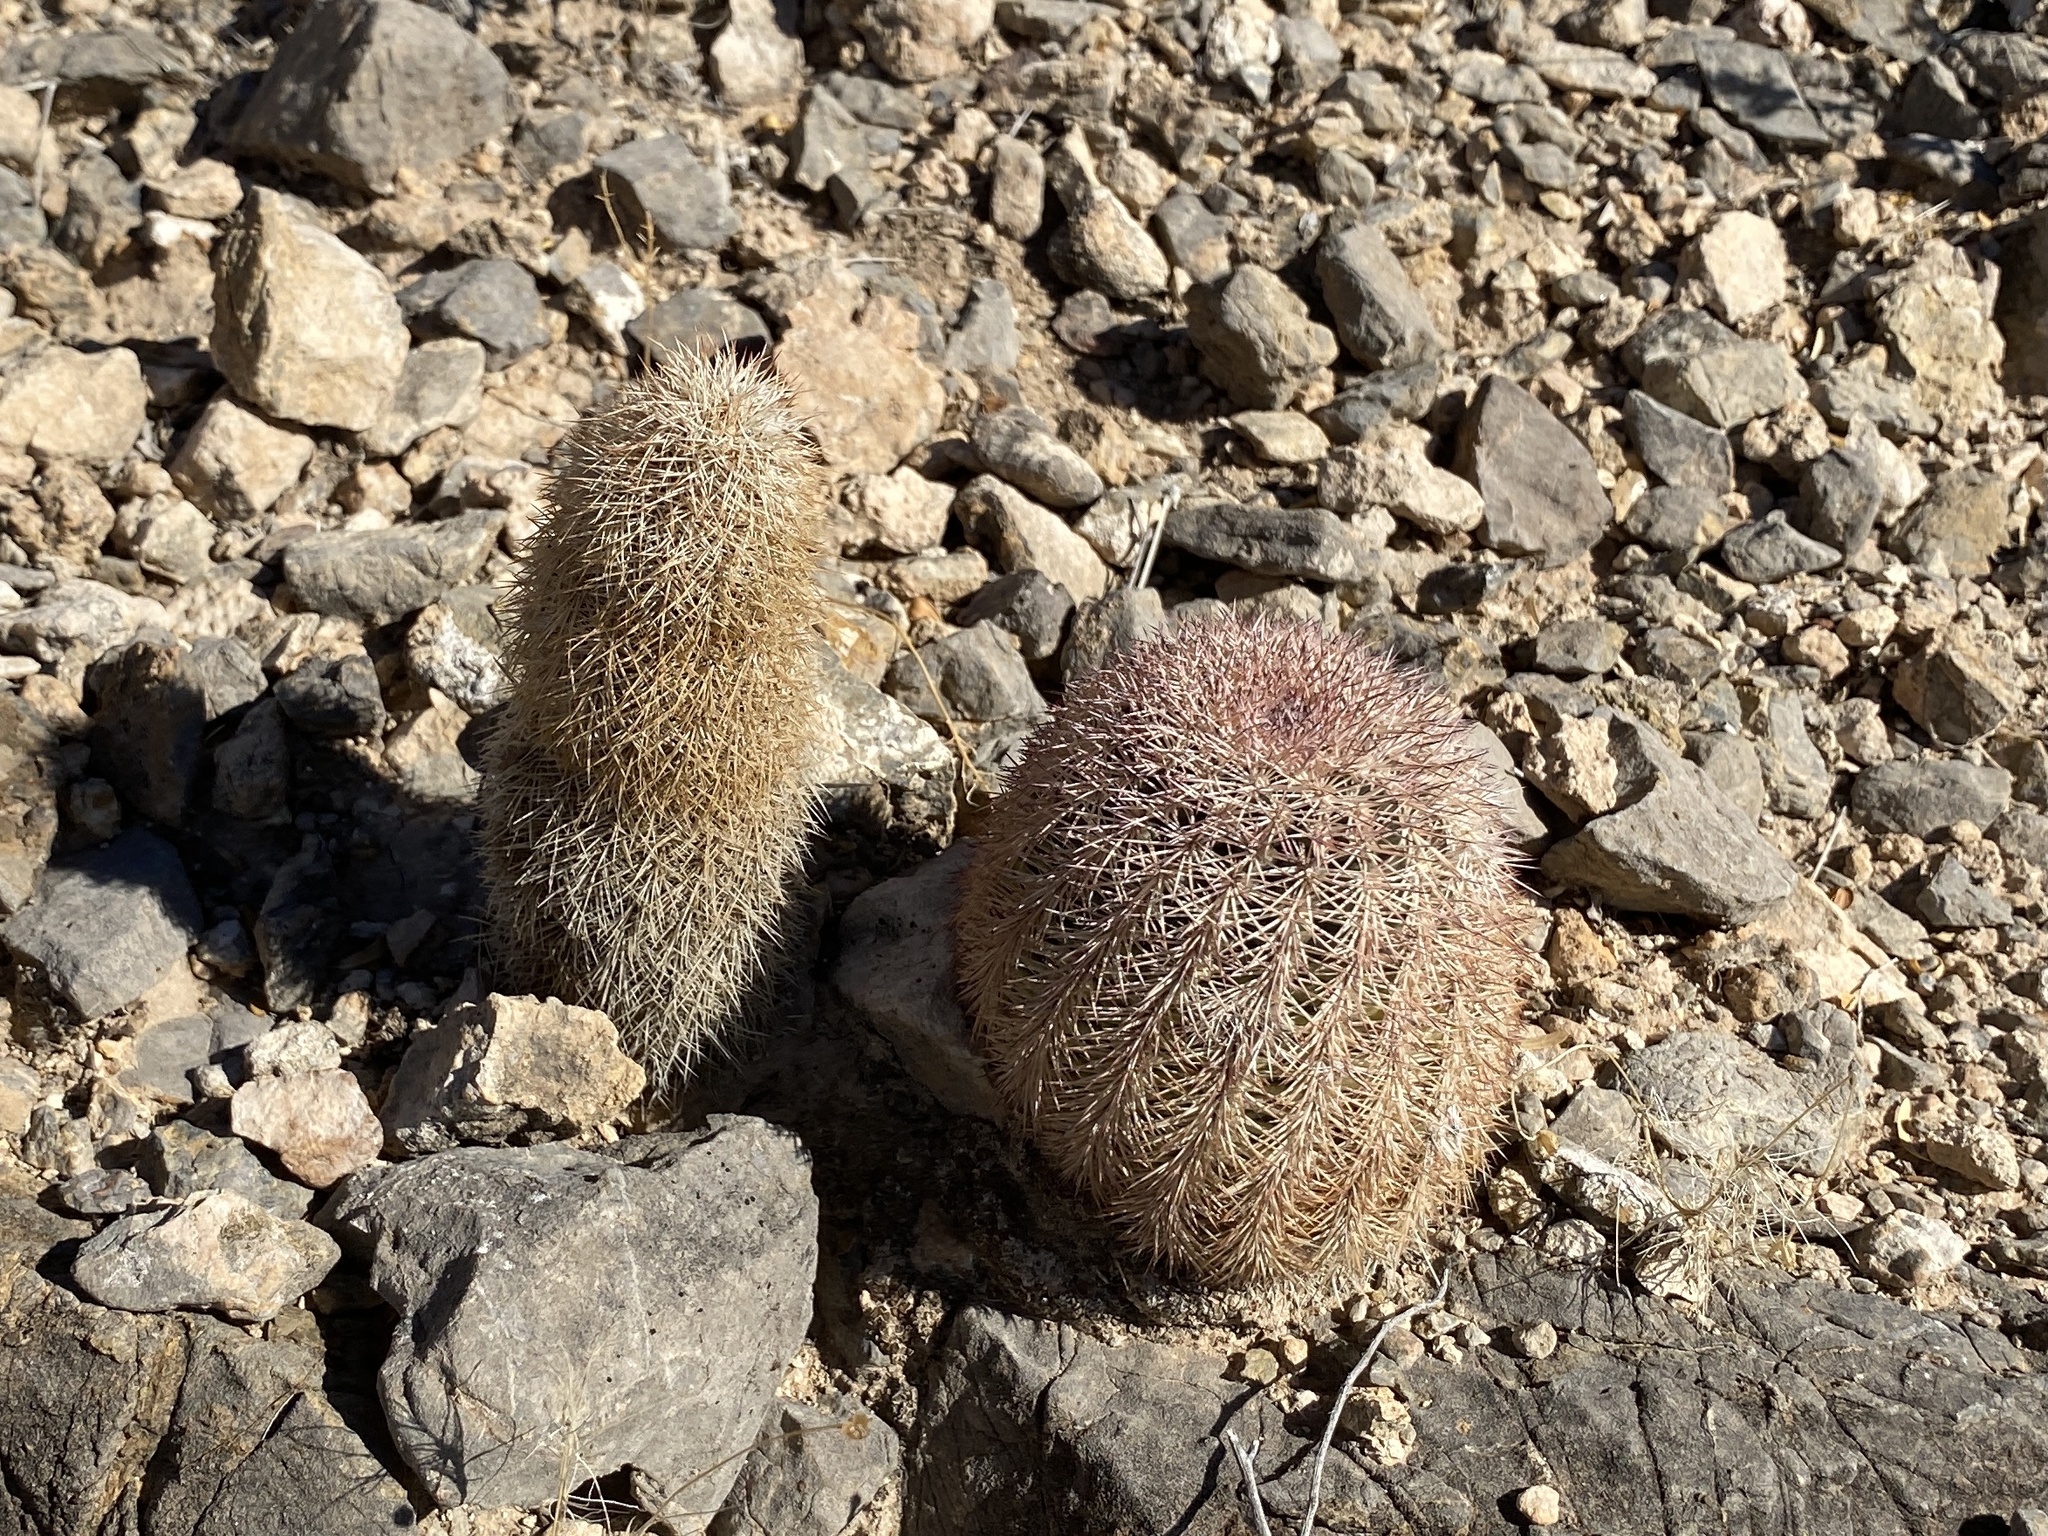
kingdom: Plantae
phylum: Tracheophyta
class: Magnoliopsida
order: Caryophyllales
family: Cactaceae
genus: Echinocereus
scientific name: Echinocereus dasyacanthus
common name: Spiny hedgehog cactus
